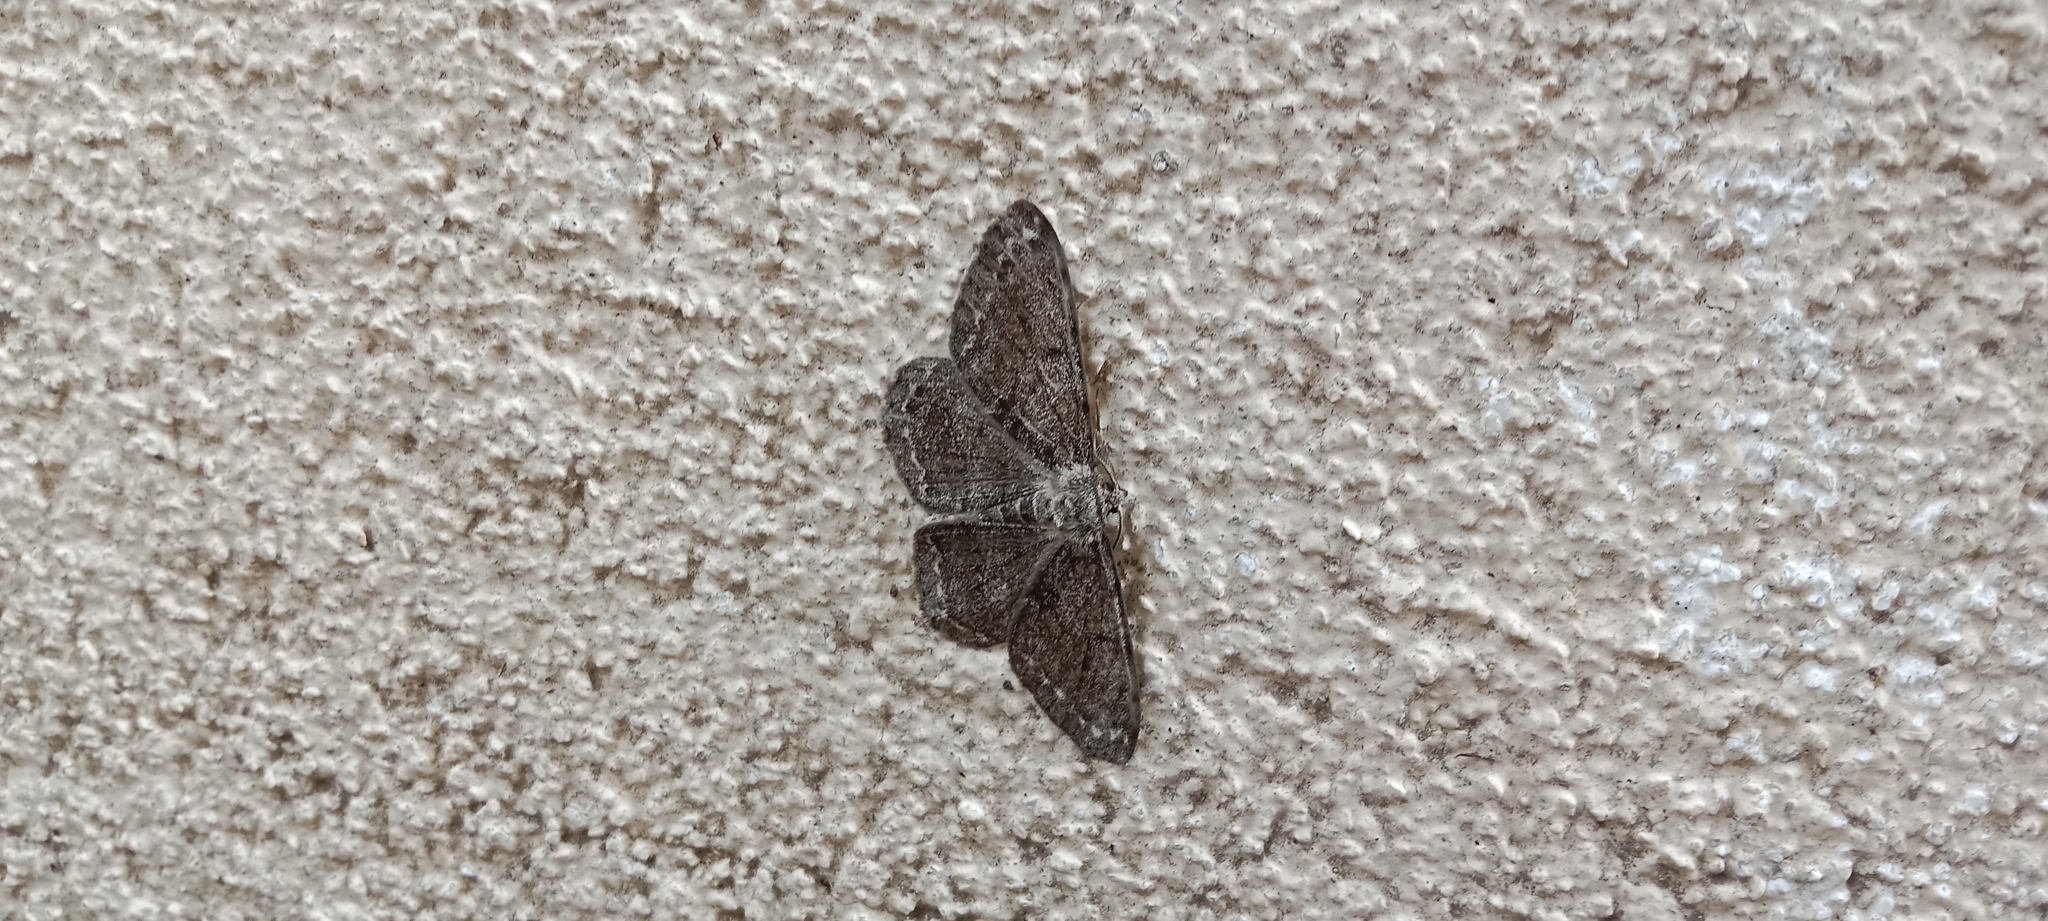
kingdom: Animalia
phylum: Arthropoda
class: Insecta
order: Lepidoptera
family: Geometridae
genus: Ectropis
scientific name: Ectropis crepuscularia
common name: Engrailed
